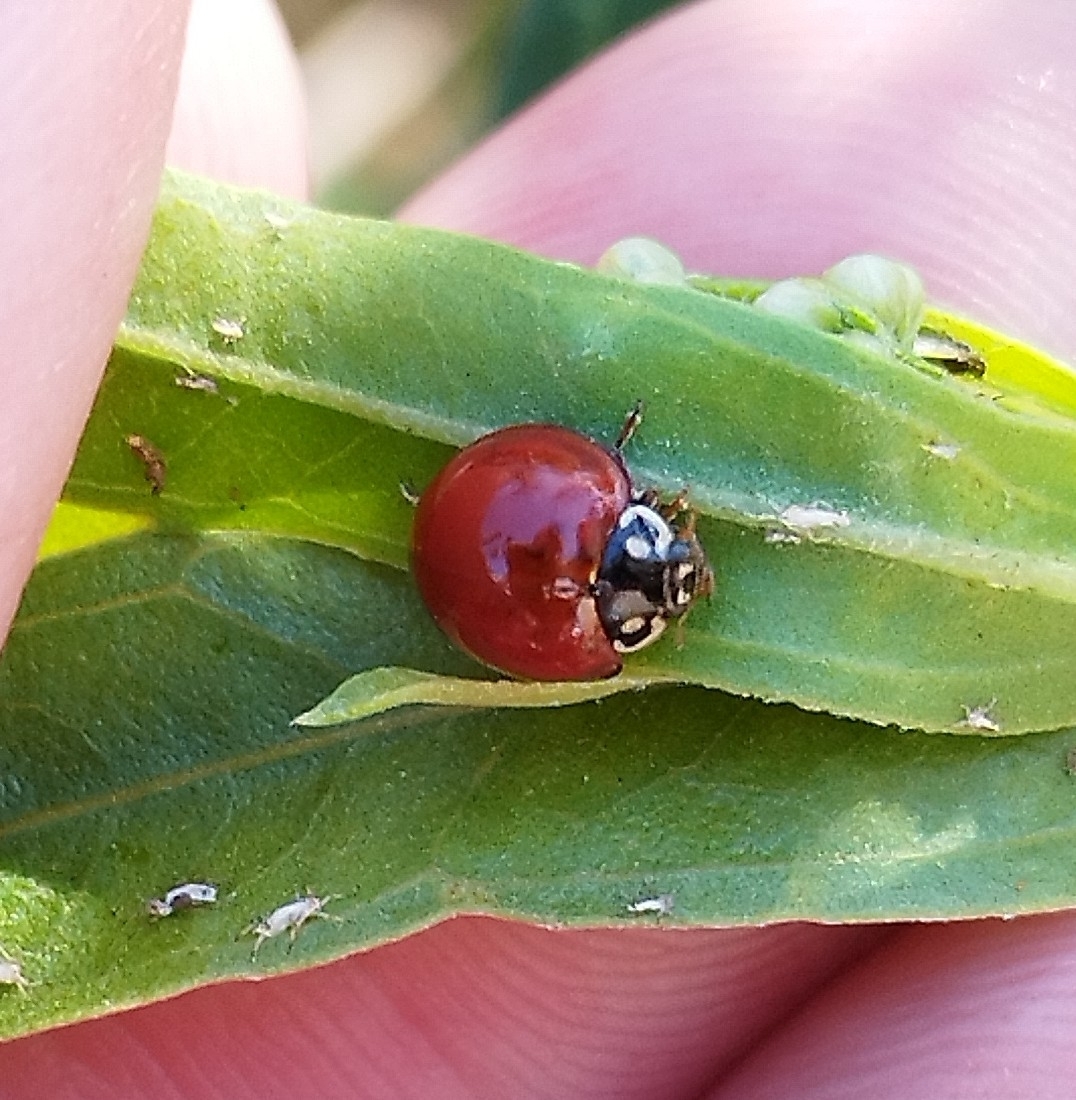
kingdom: Animalia
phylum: Arthropoda
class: Insecta
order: Coleoptera
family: Coccinellidae
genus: Cycloneda
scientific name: Cycloneda sanguinea
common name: Ladybird beetle
